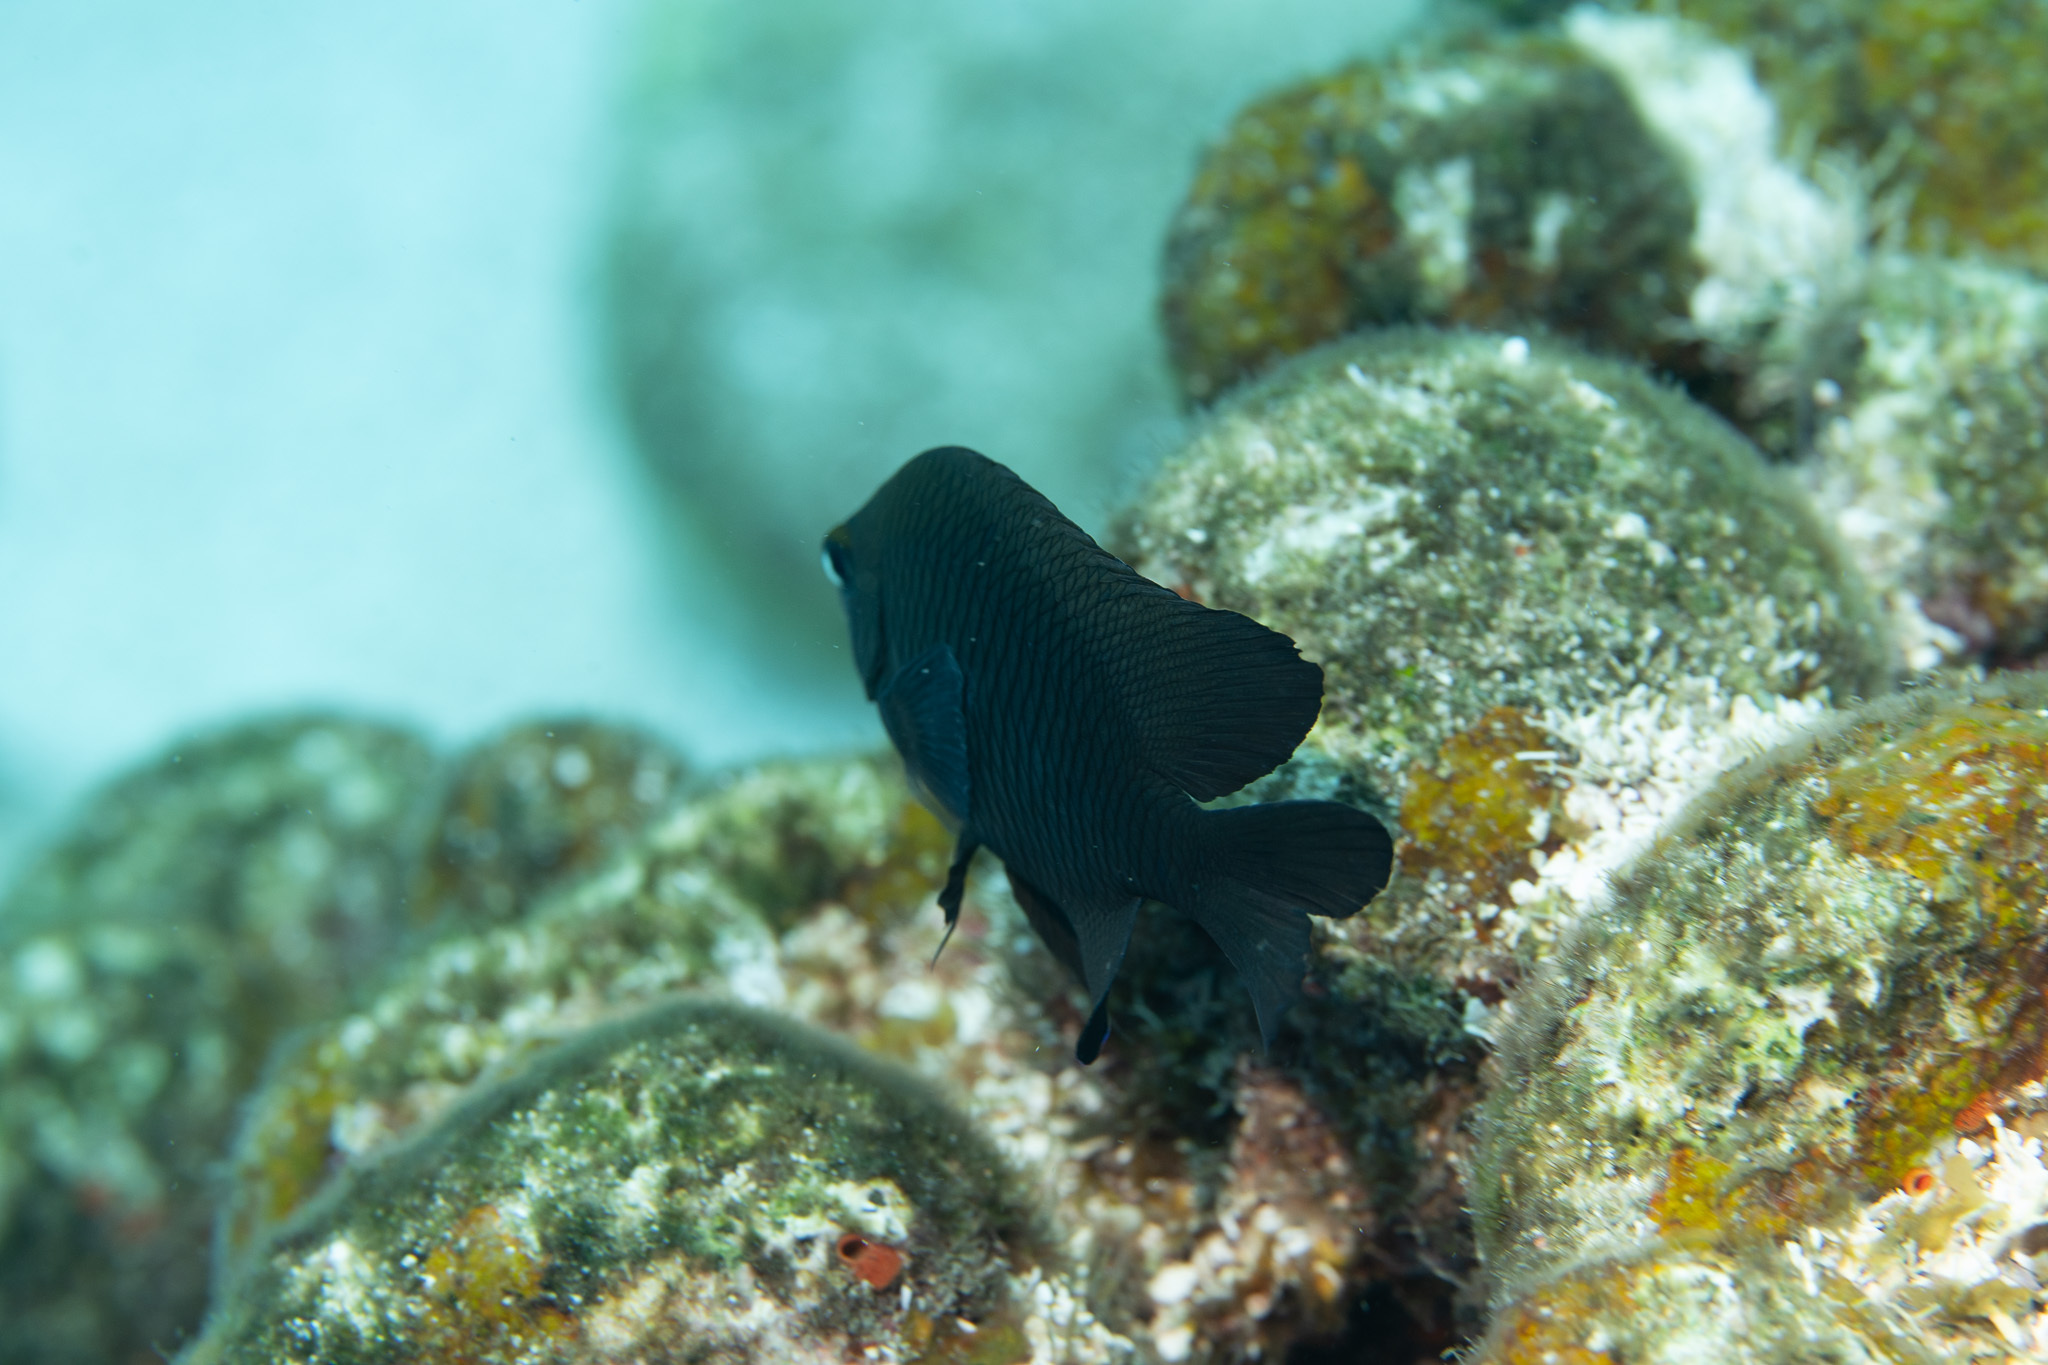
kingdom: Animalia
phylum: Chordata
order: Perciformes
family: Pomacentridae
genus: Stegastes
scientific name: Stegastes diencaeus
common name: Longfin damselfish
